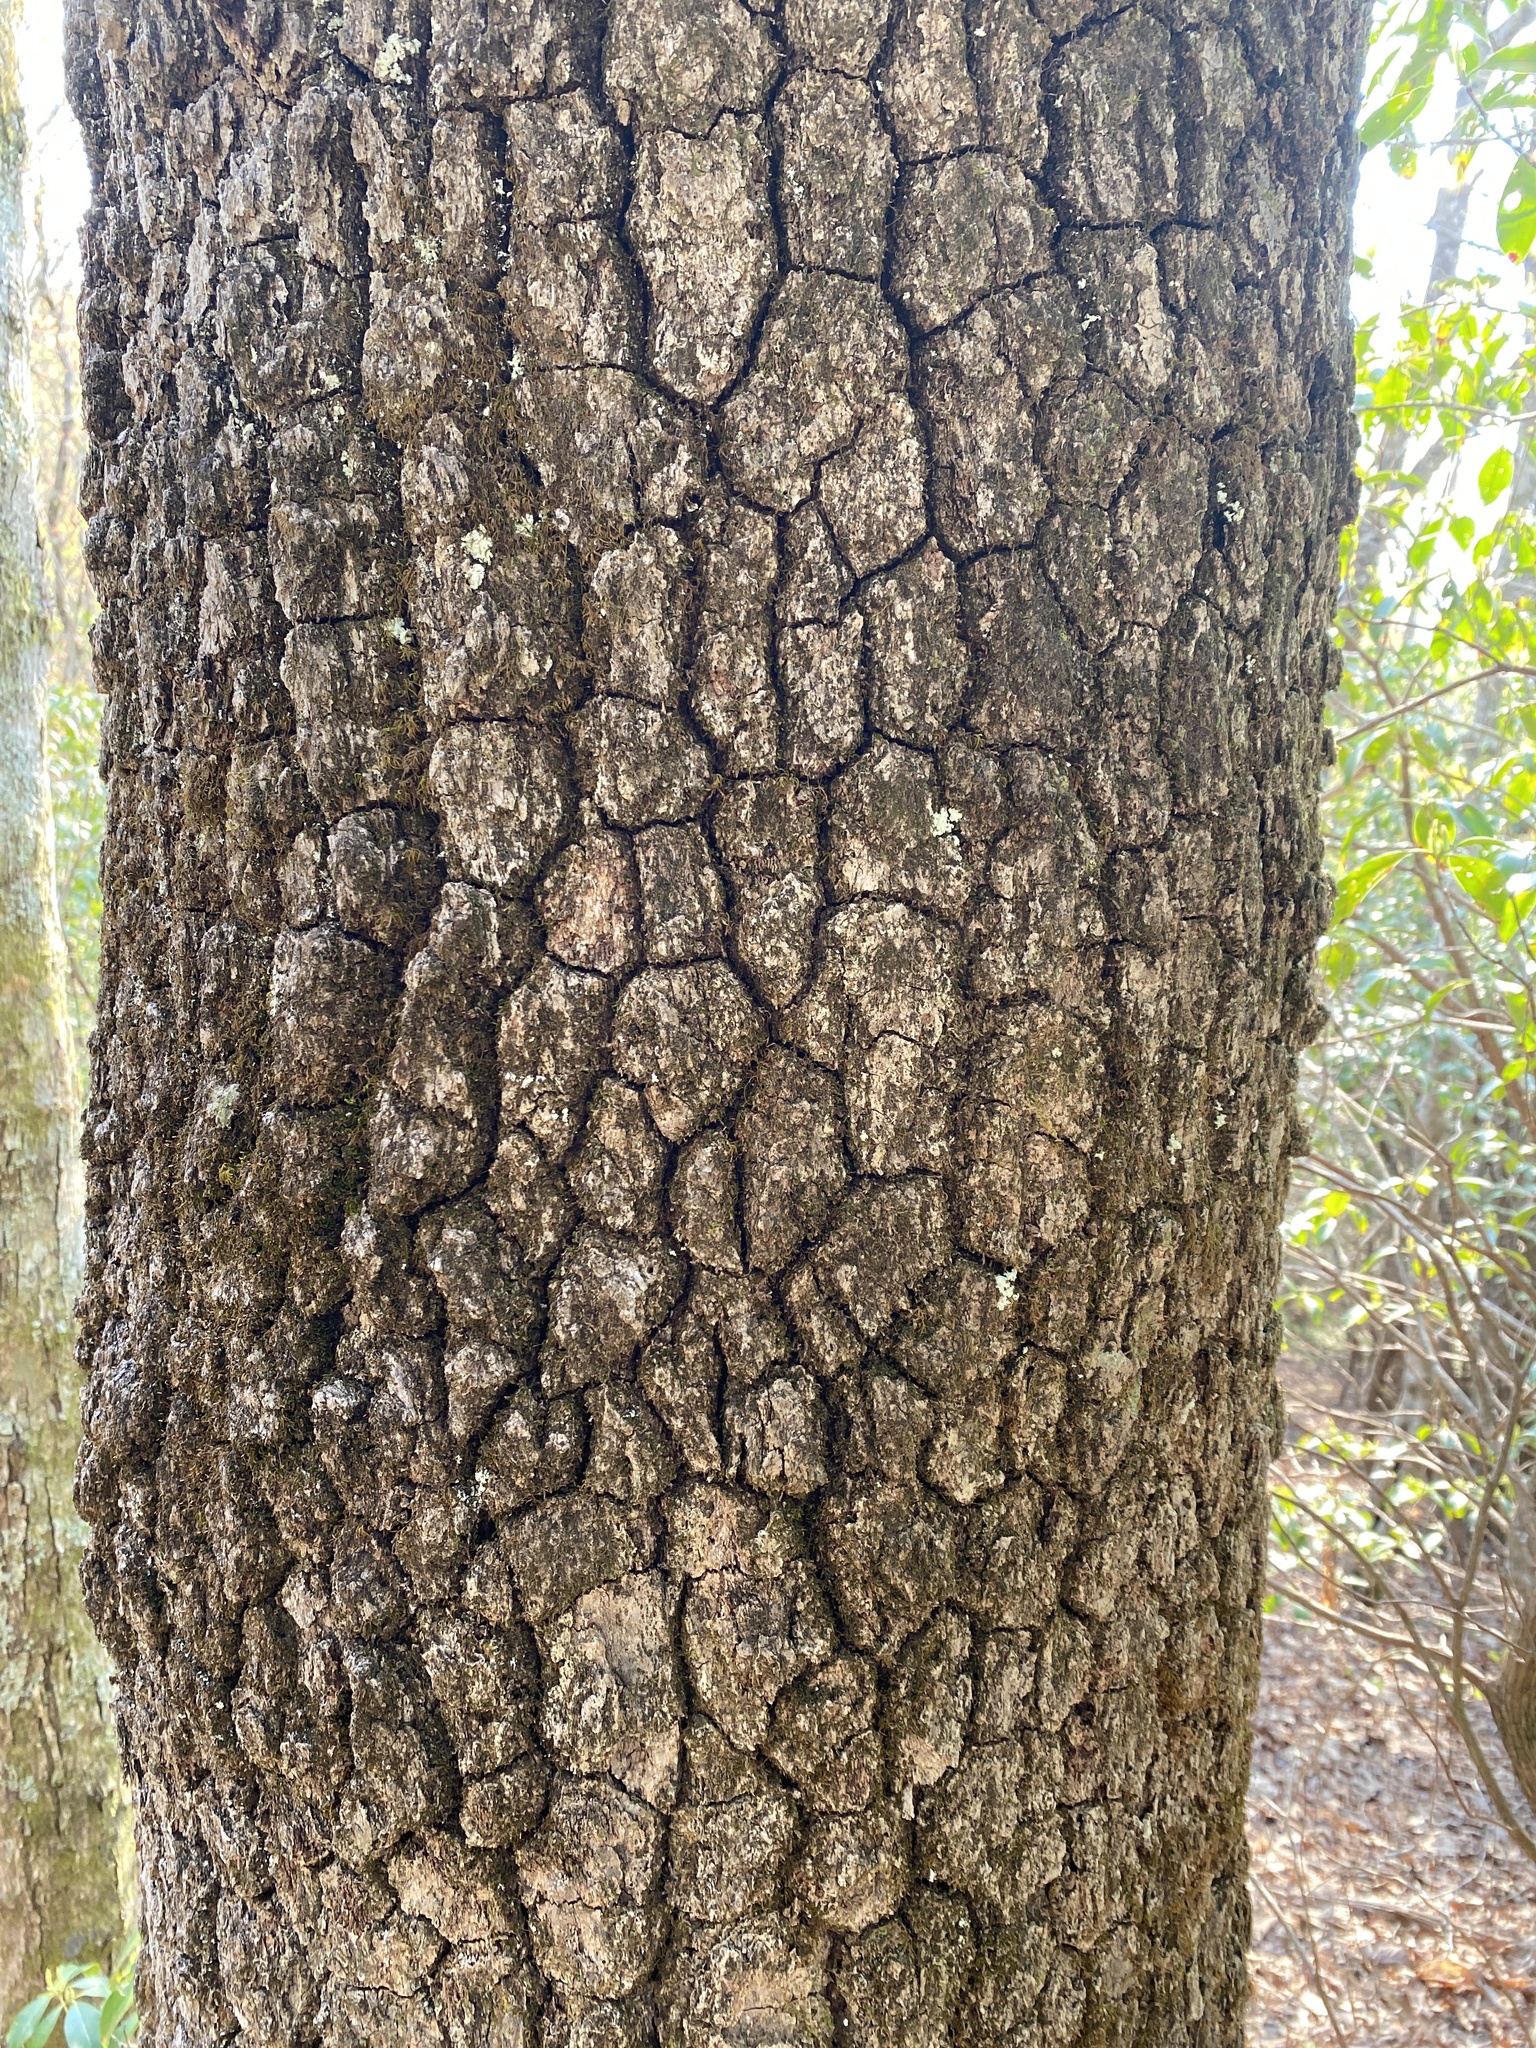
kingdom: Plantae
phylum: Tracheophyta
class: Magnoliopsida
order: Cornales
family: Nyssaceae
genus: Nyssa
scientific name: Nyssa sylvatica
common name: Black tupelo
